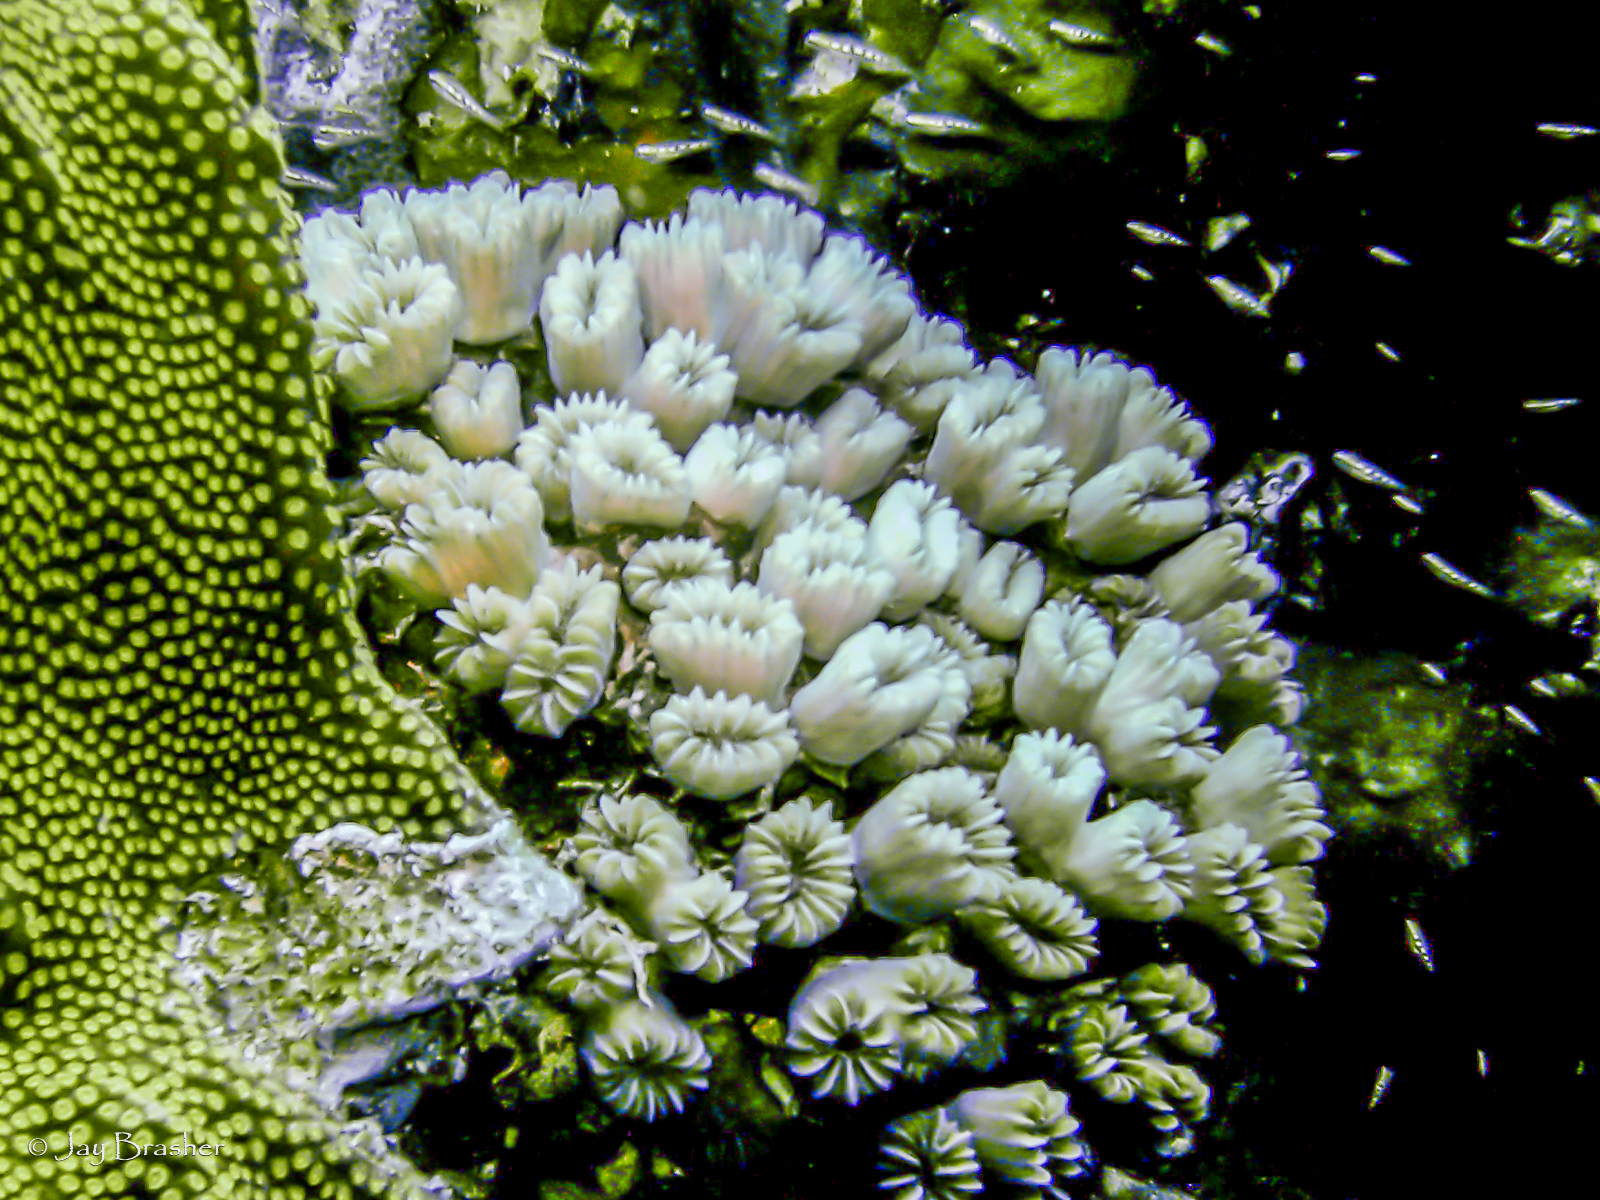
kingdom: Animalia
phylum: Cnidaria
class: Anthozoa
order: Scleractinia
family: Meandrinidae
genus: Eusmilia
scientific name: Eusmilia fastigiata
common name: Smooth flower coral
